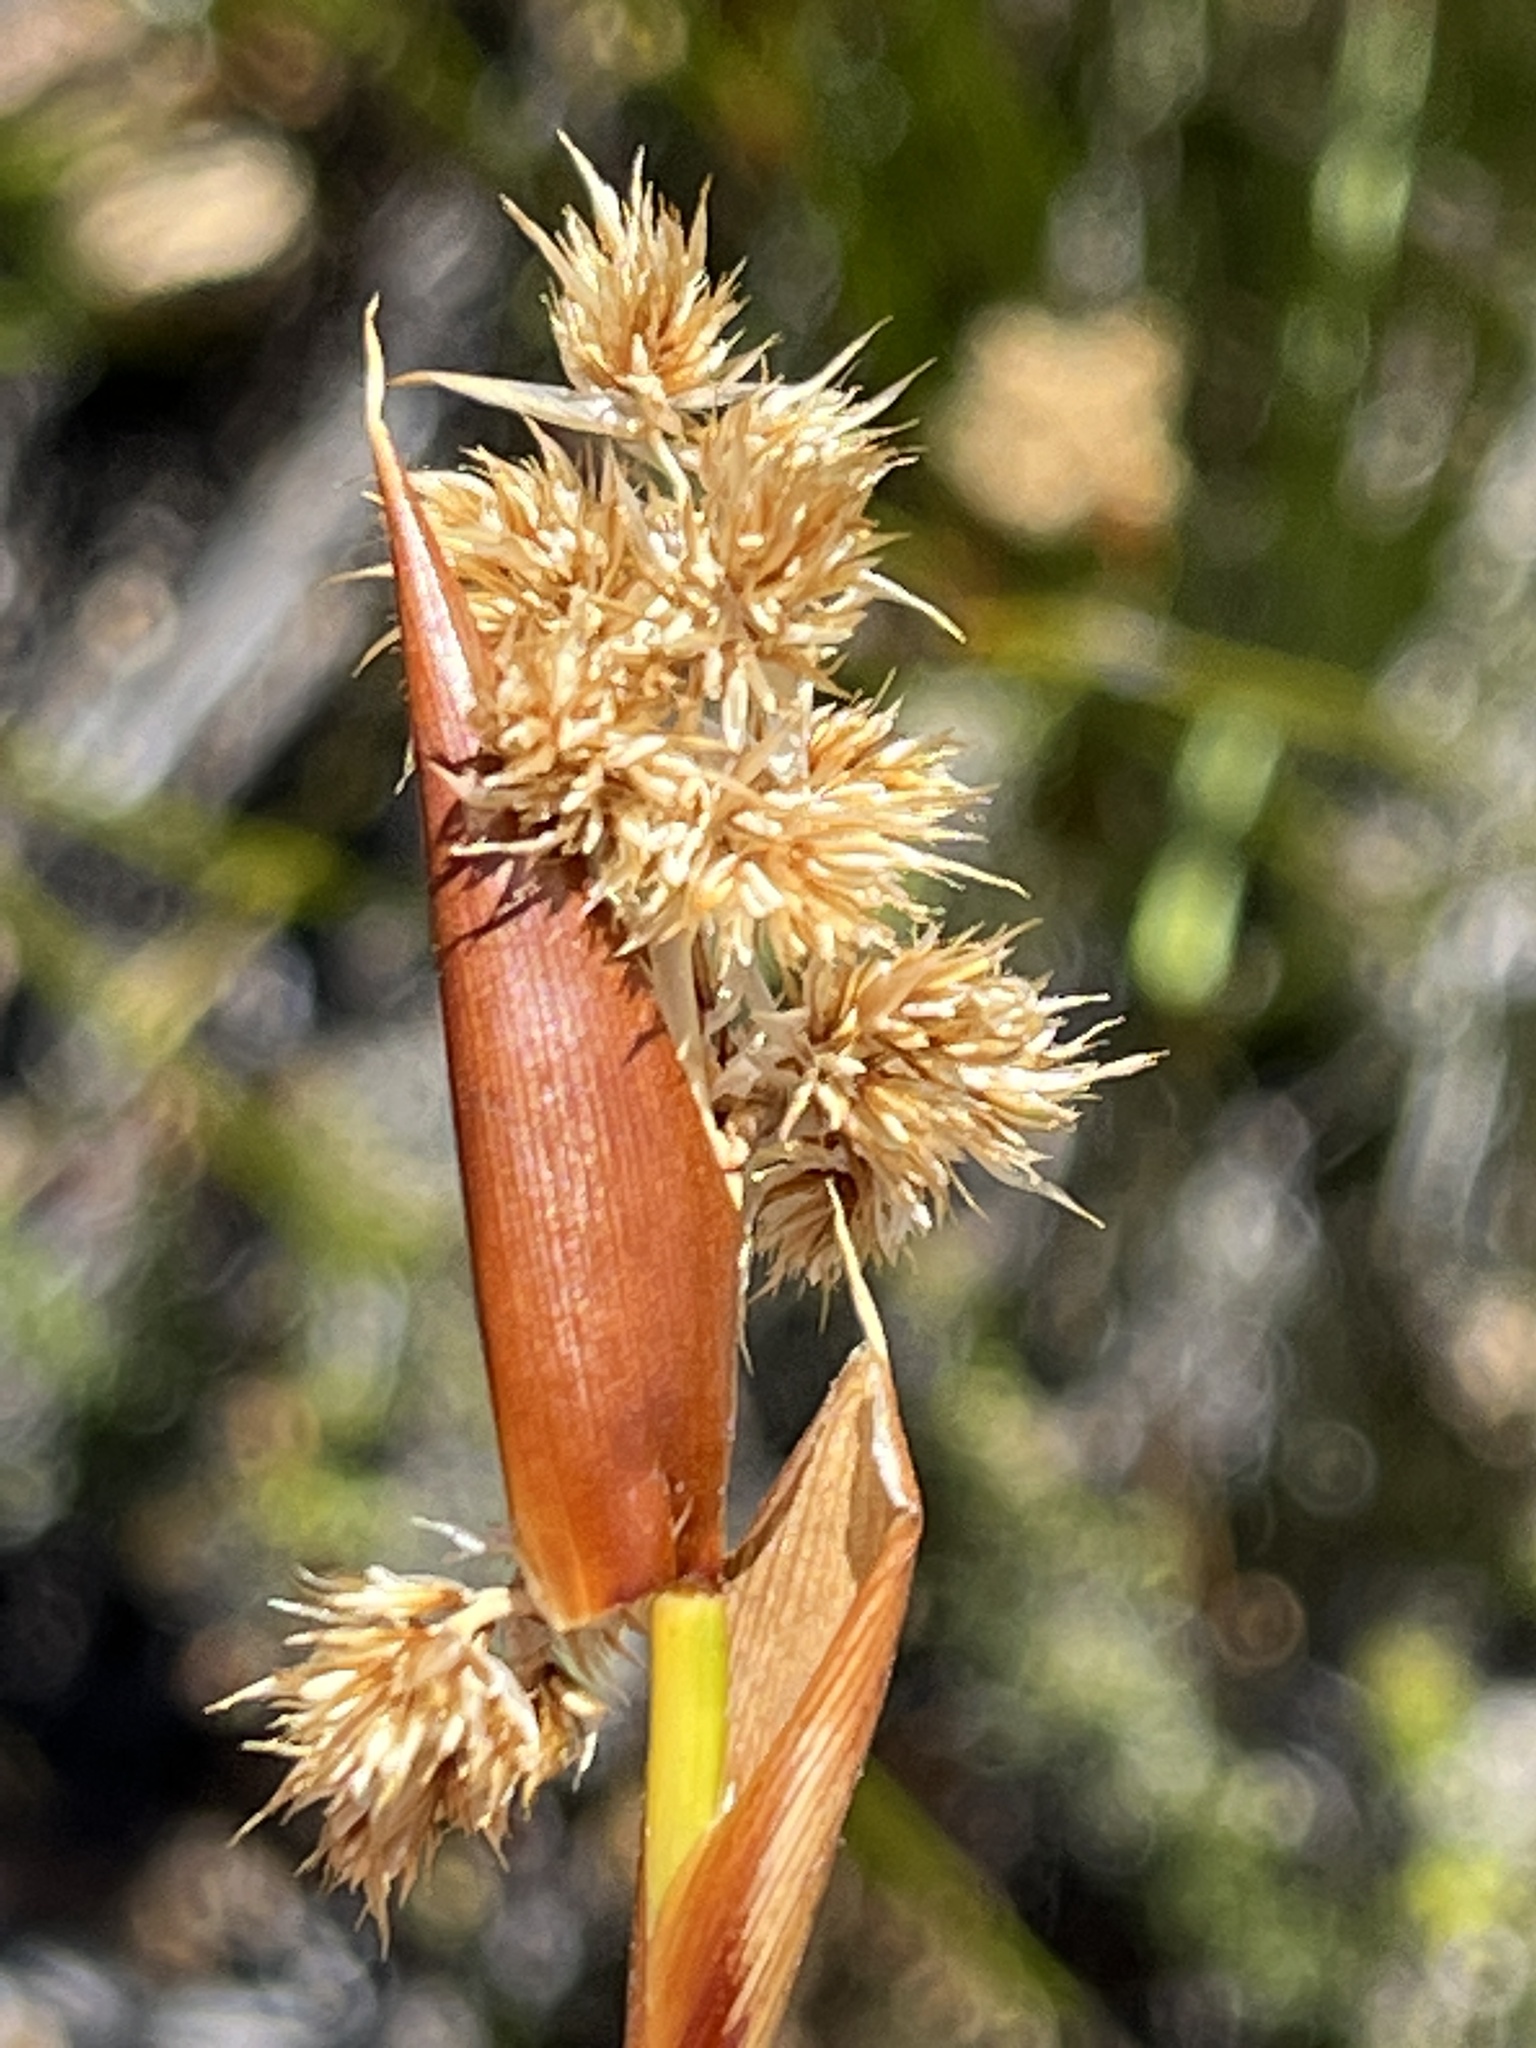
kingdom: Plantae
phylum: Tracheophyta
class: Liliopsida
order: Poales
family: Restionaceae
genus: Ceratocaryum
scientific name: Ceratocaryum xerophilum
